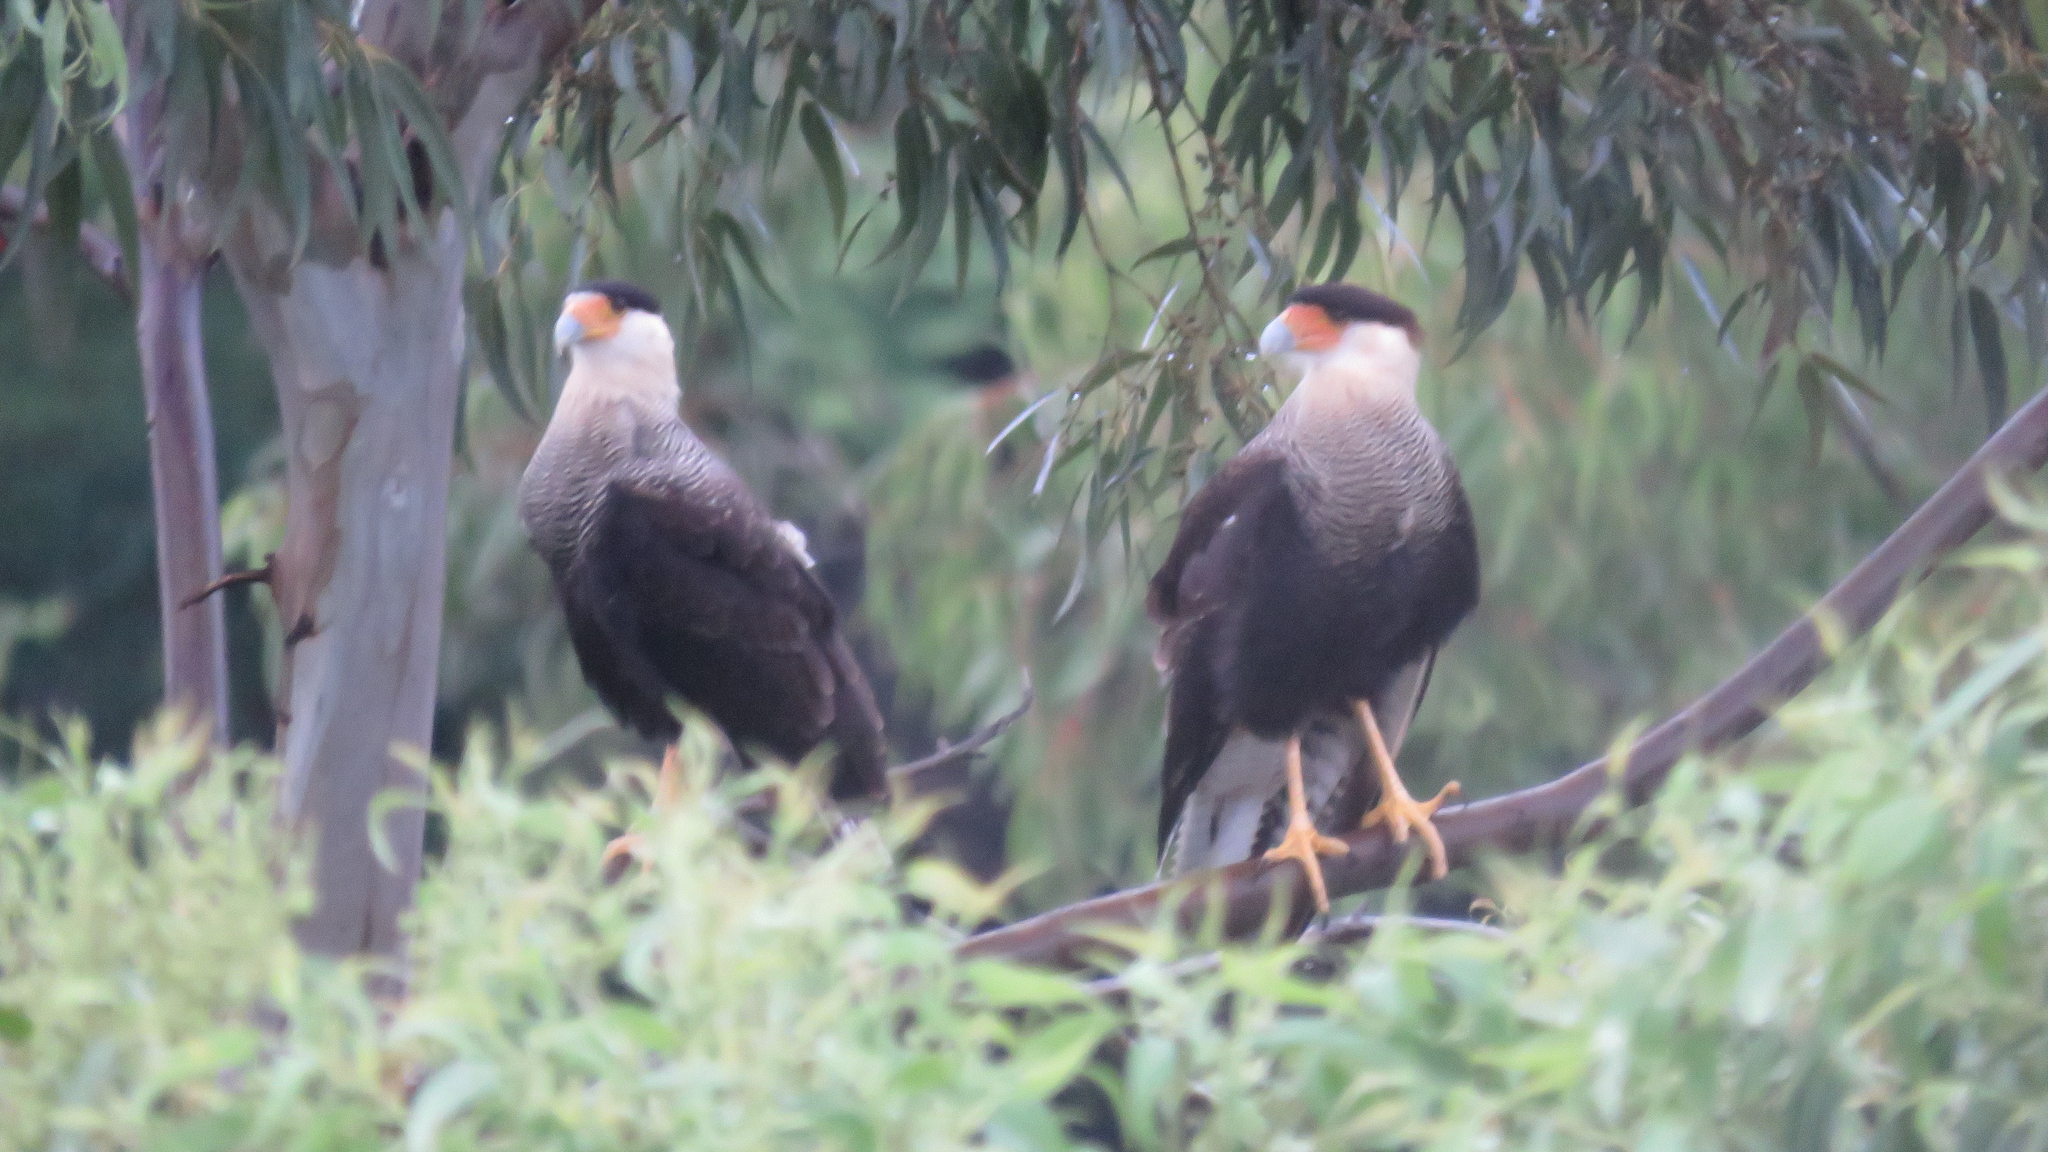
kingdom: Animalia
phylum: Chordata
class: Aves
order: Falconiformes
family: Falconidae
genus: Caracara
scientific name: Caracara plancus
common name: Southern caracara
